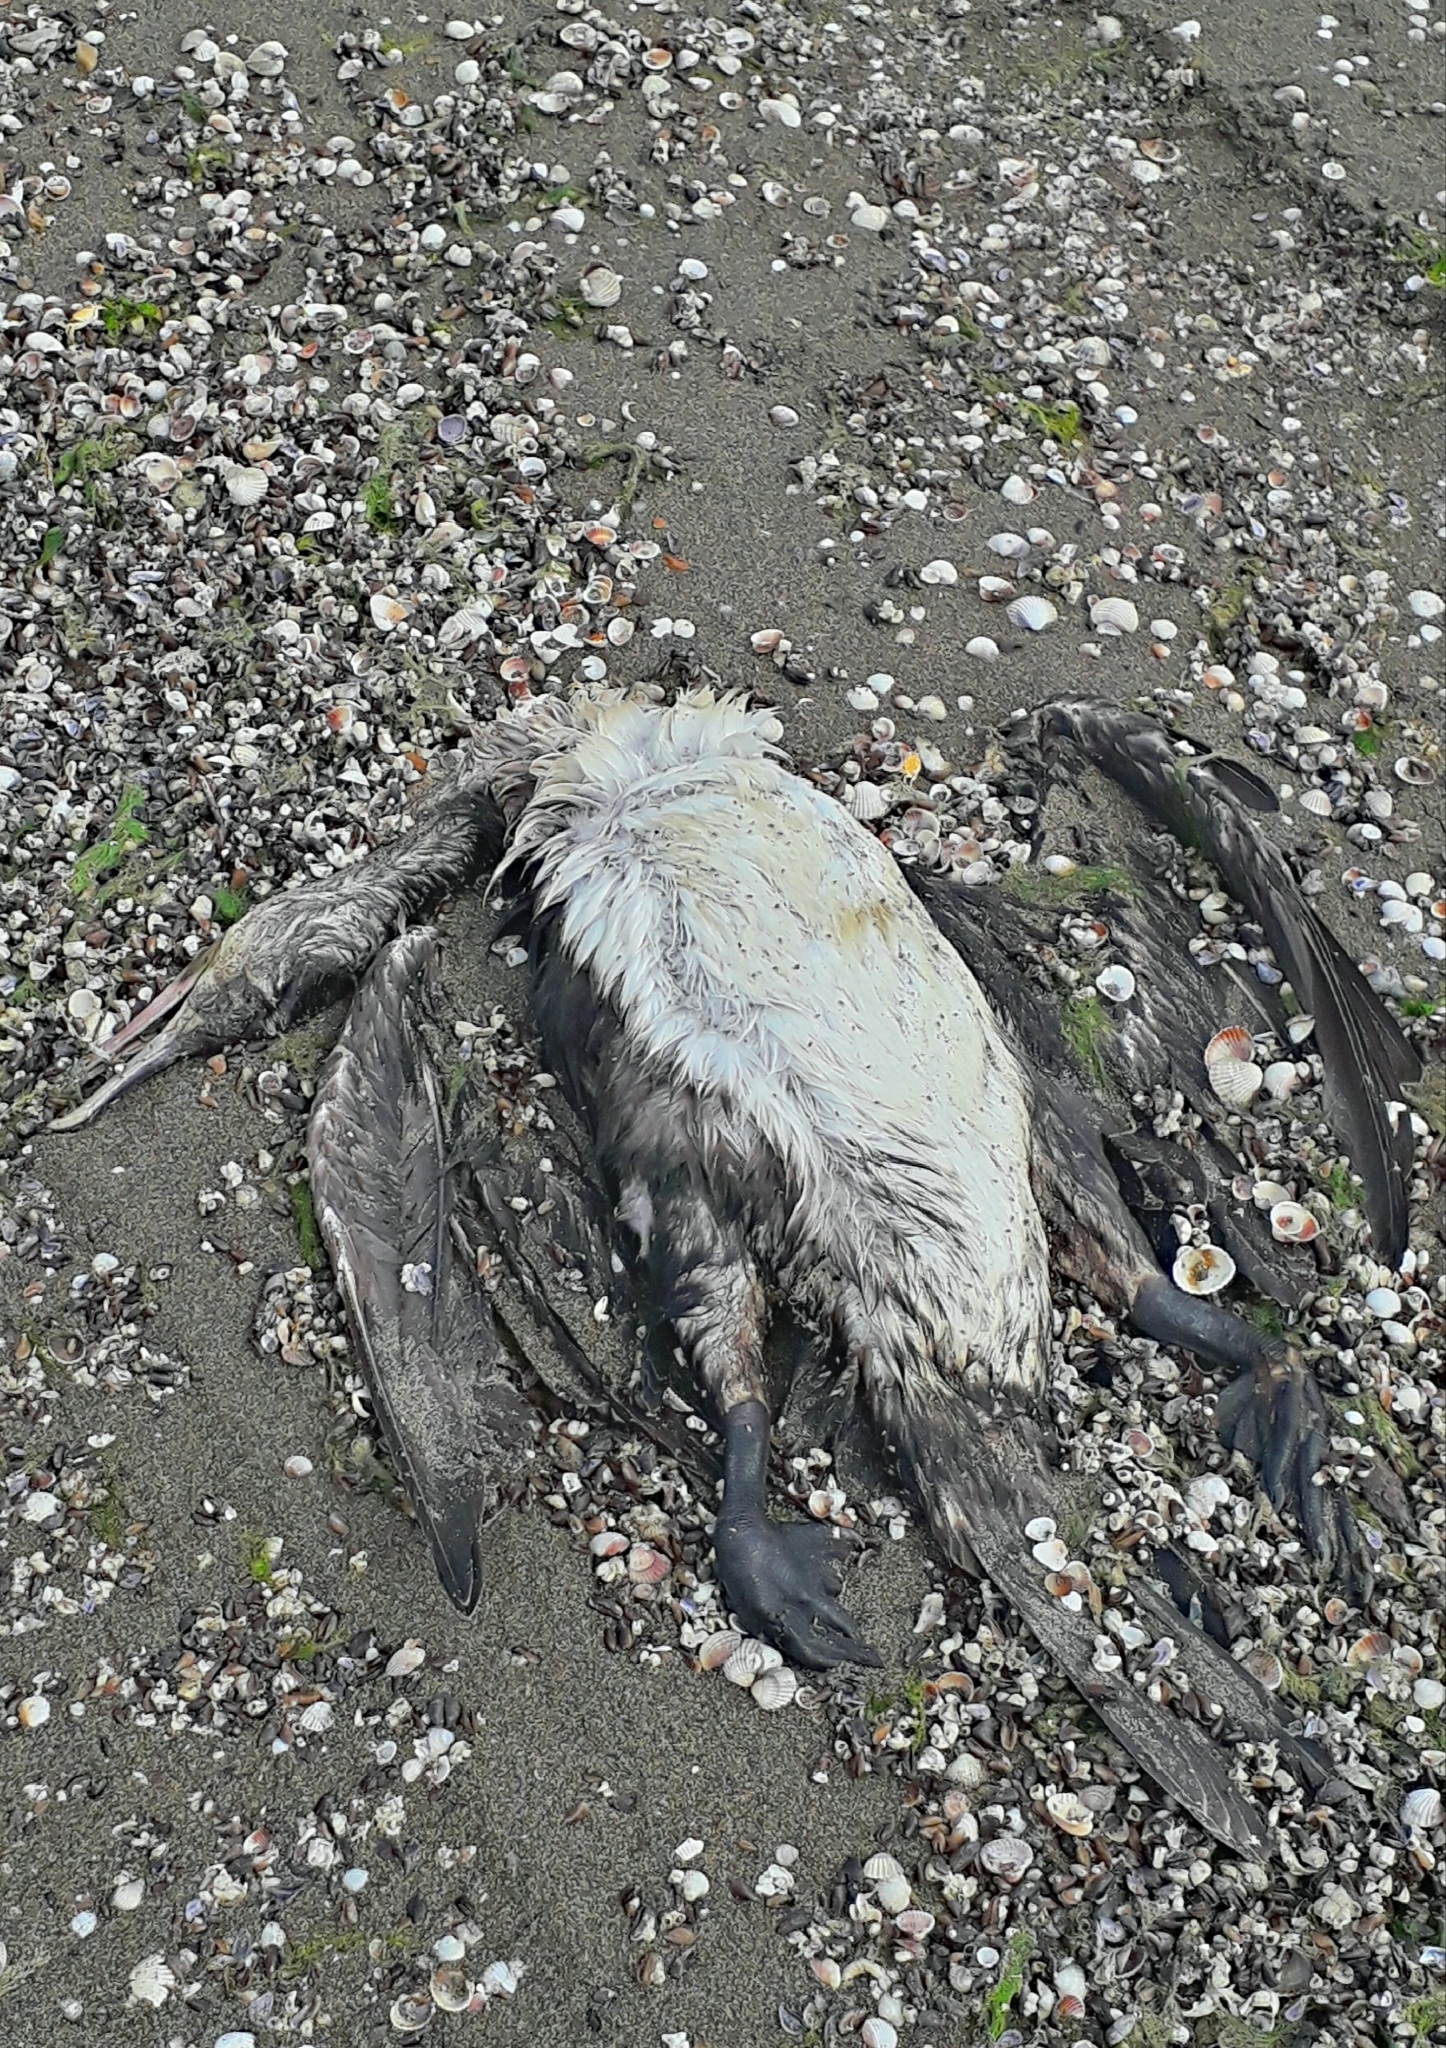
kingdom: Animalia
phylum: Chordata
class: Aves
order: Suliformes
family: Phalacrocoracidae
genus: Phalacrocorax
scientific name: Phalacrocorax carbo
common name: Great cormorant
